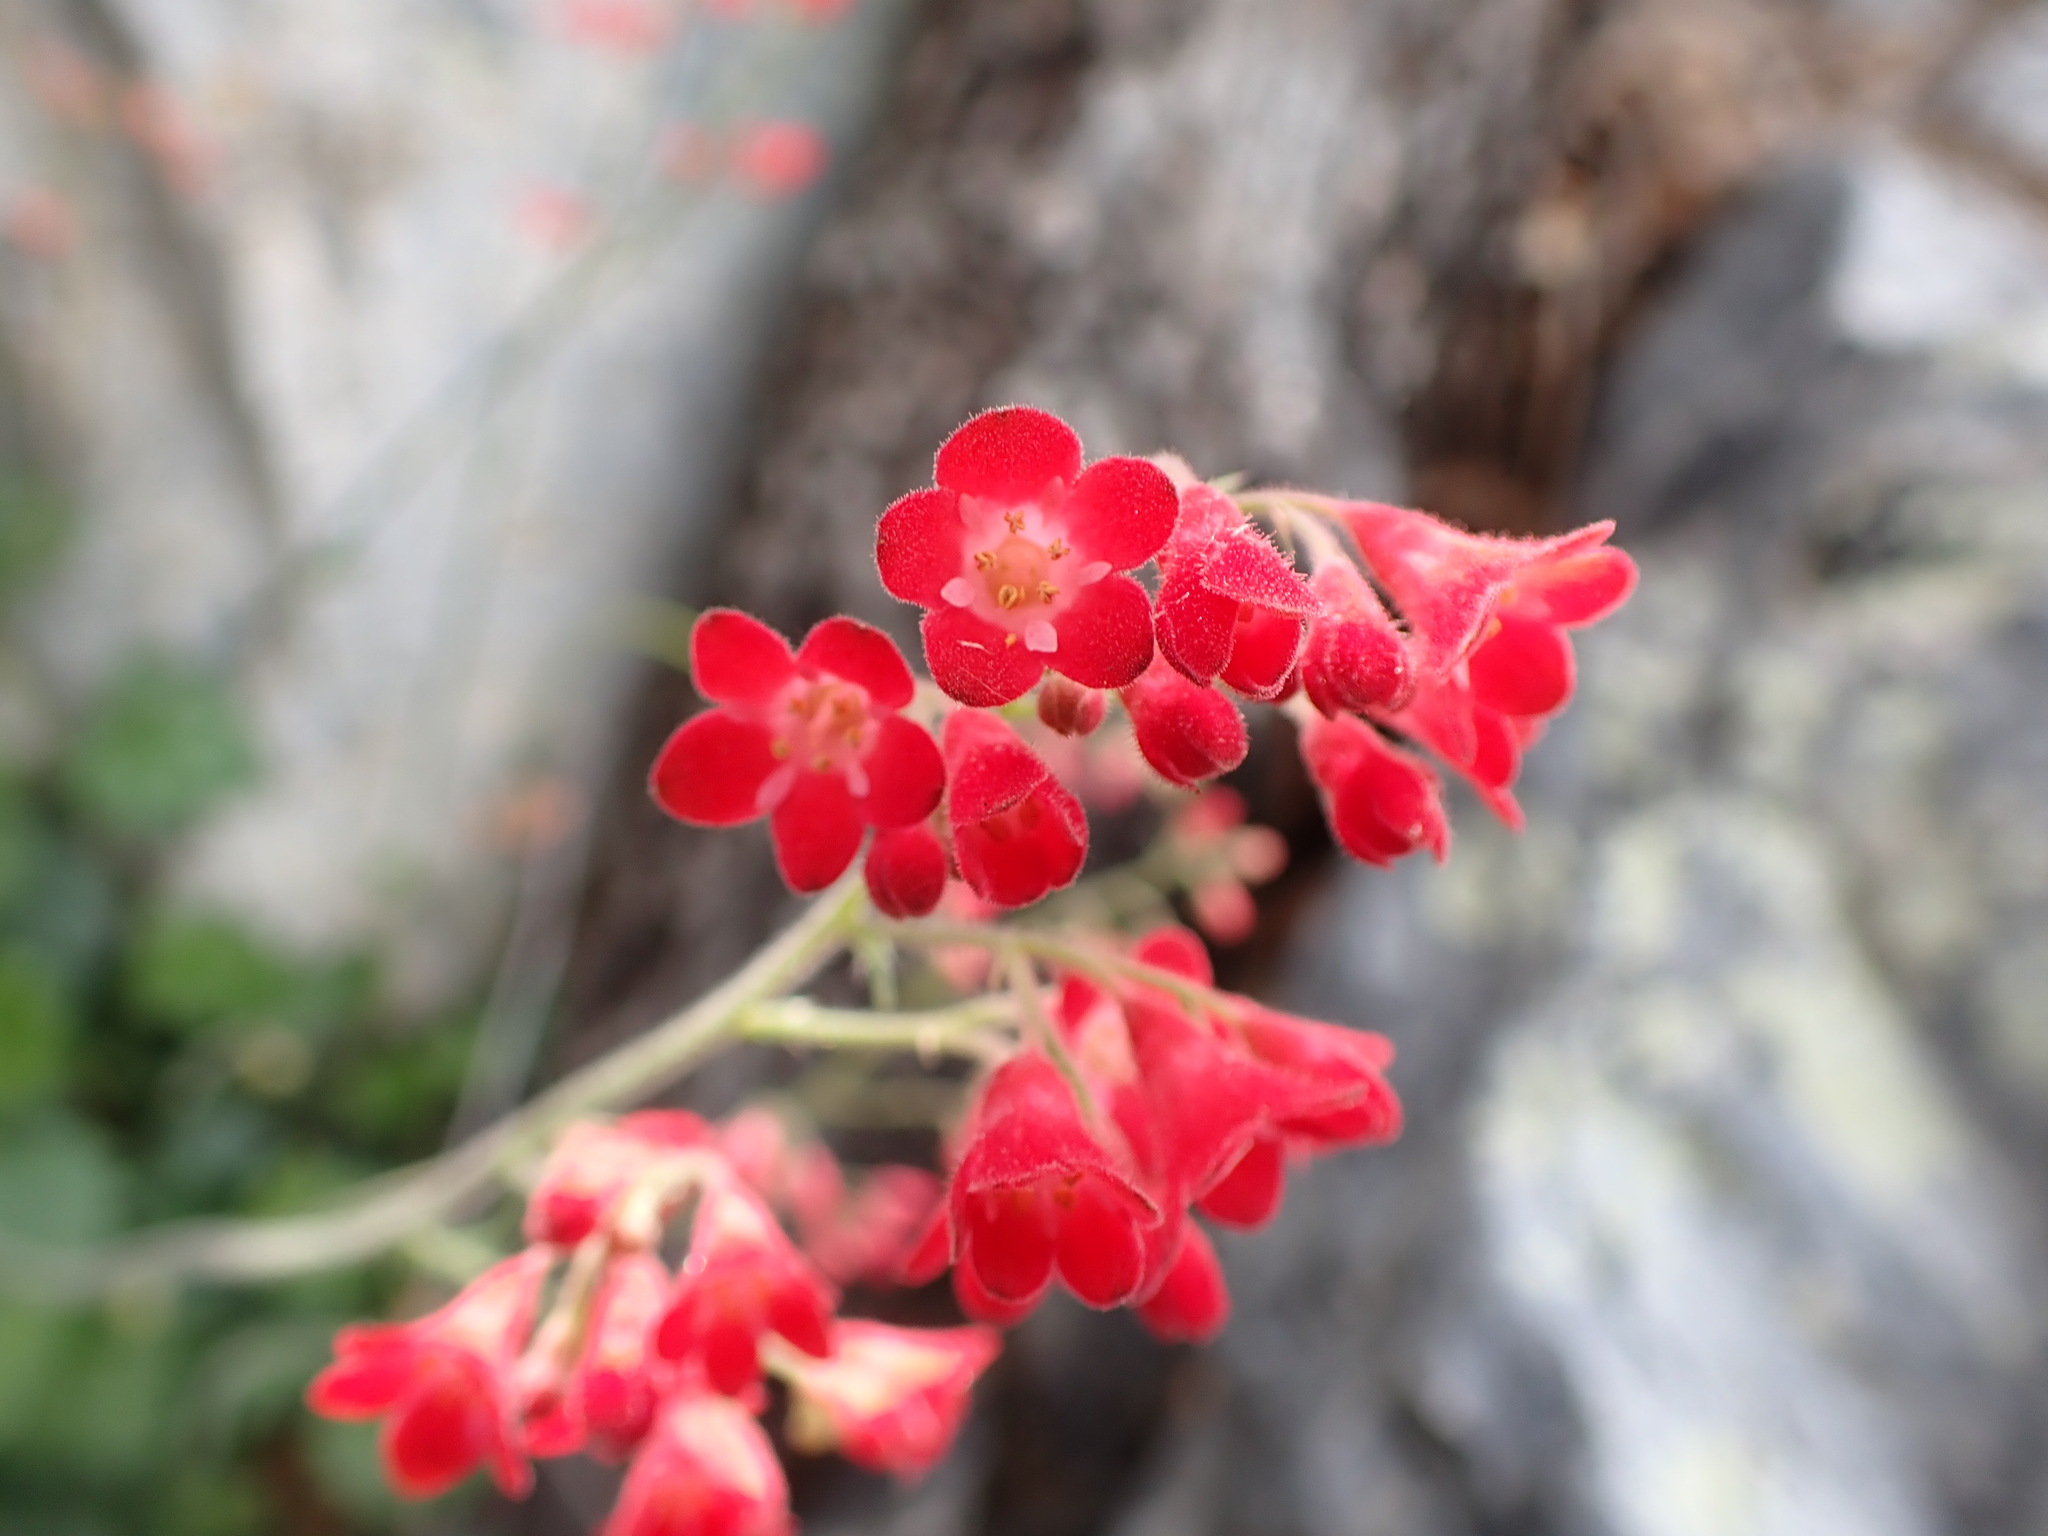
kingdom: Plantae
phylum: Tracheophyta
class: Magnoliopsida
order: Saxifragales
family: Saxifragaceae
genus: Heuchera
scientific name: Heuchera sanguinea
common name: Coralbells
